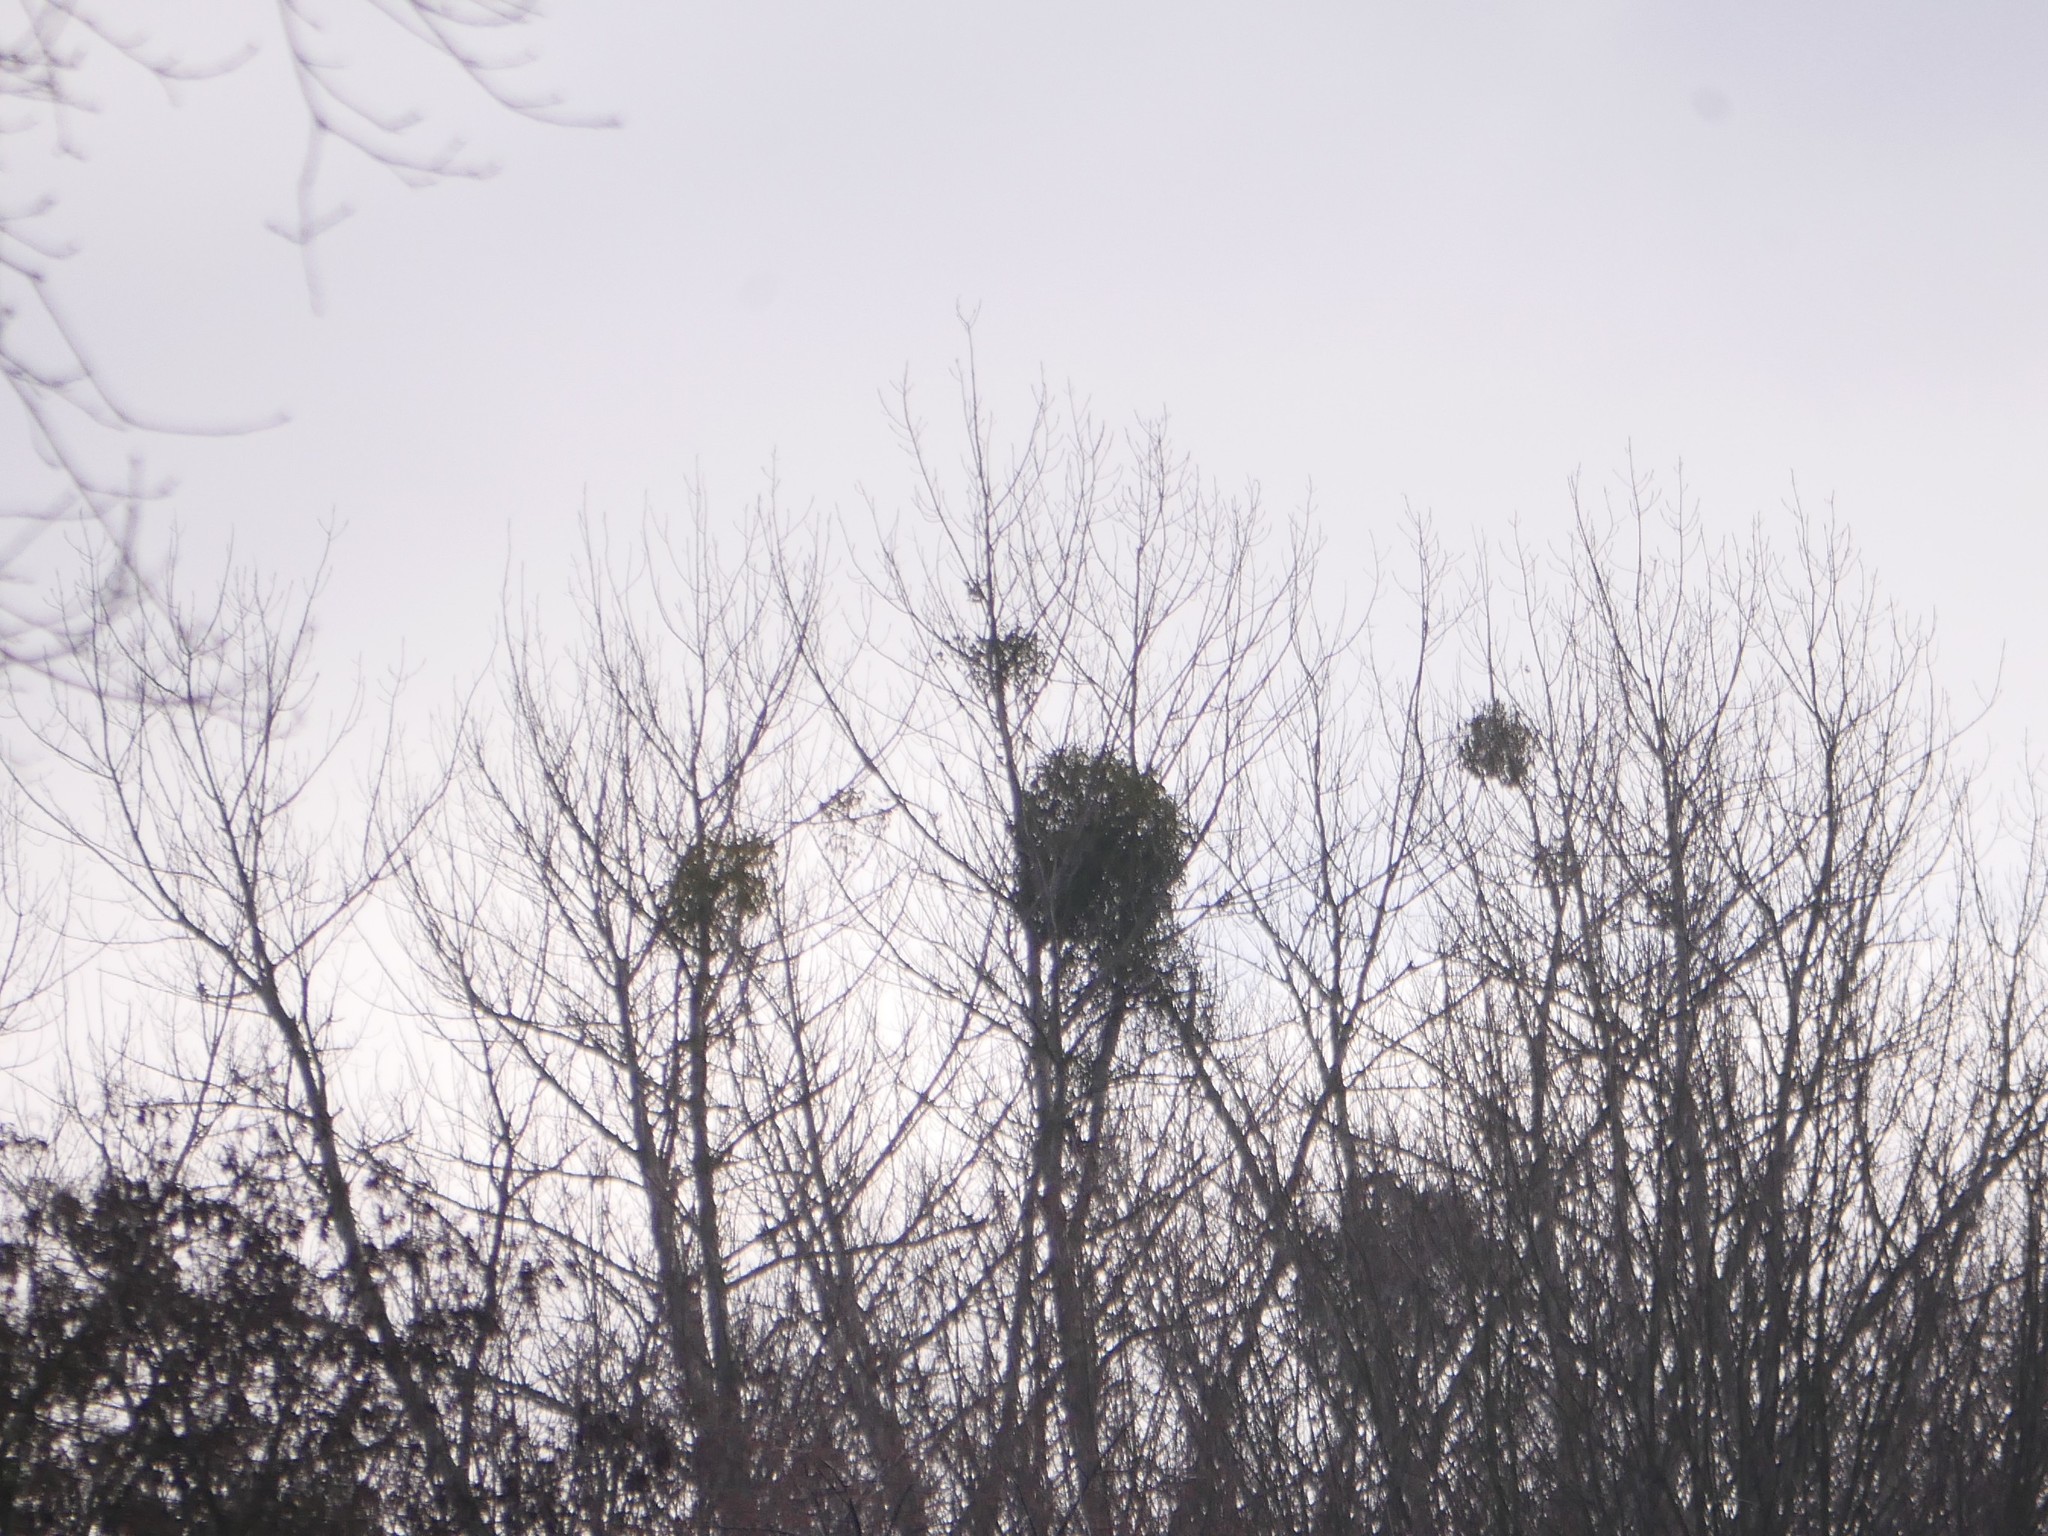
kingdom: Plantae
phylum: Tracheophyta
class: Magnoliopsida
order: Santalales
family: Viscaceae
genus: Viscum
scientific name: Viscum album
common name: Mistletoe
